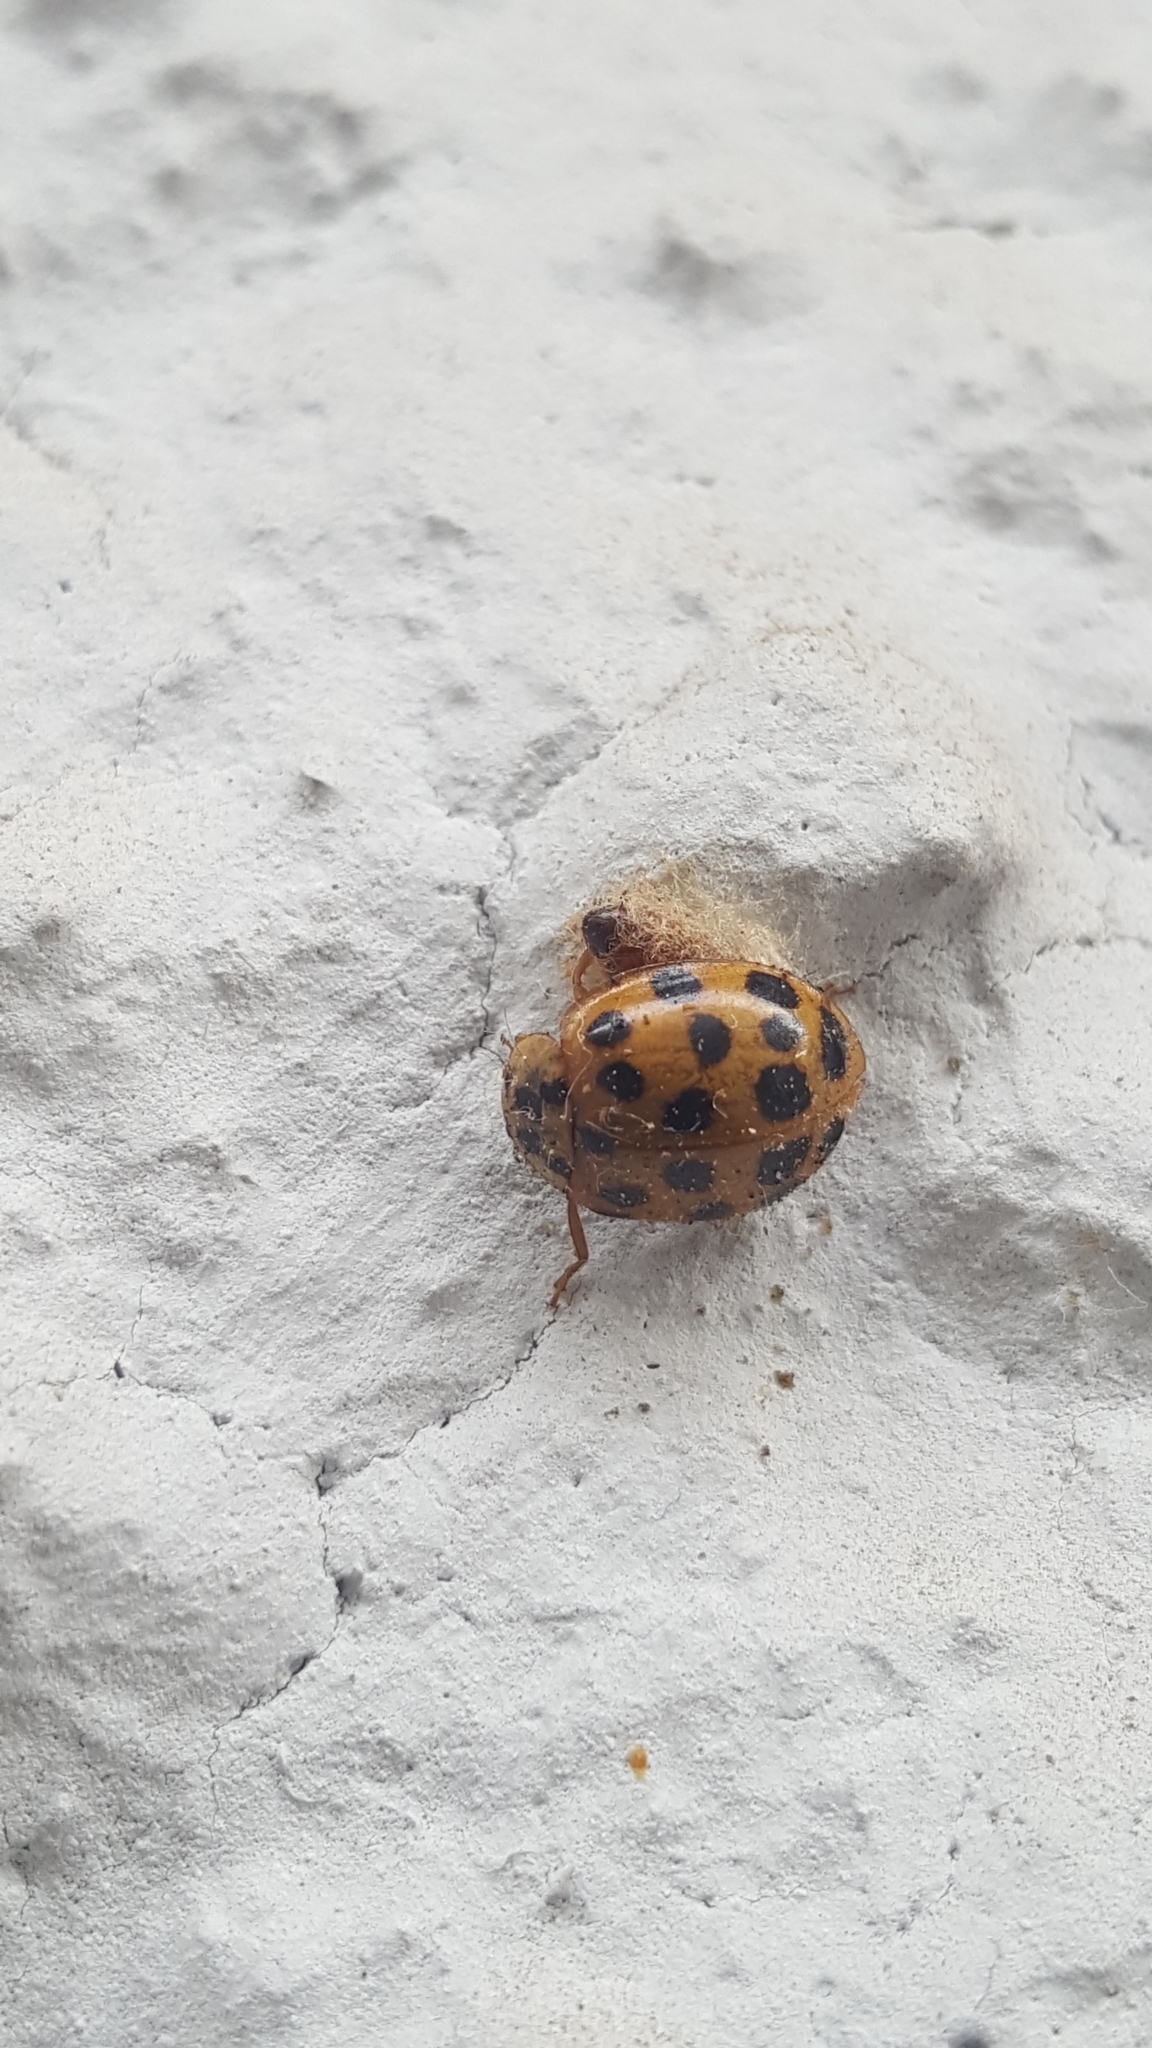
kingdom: Animalia
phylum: Arthropoda
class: Insecta
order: Coleoptera
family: Coccinellidae
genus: Harmonia
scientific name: Harmonia axyridis
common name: Harlequin ladybird
